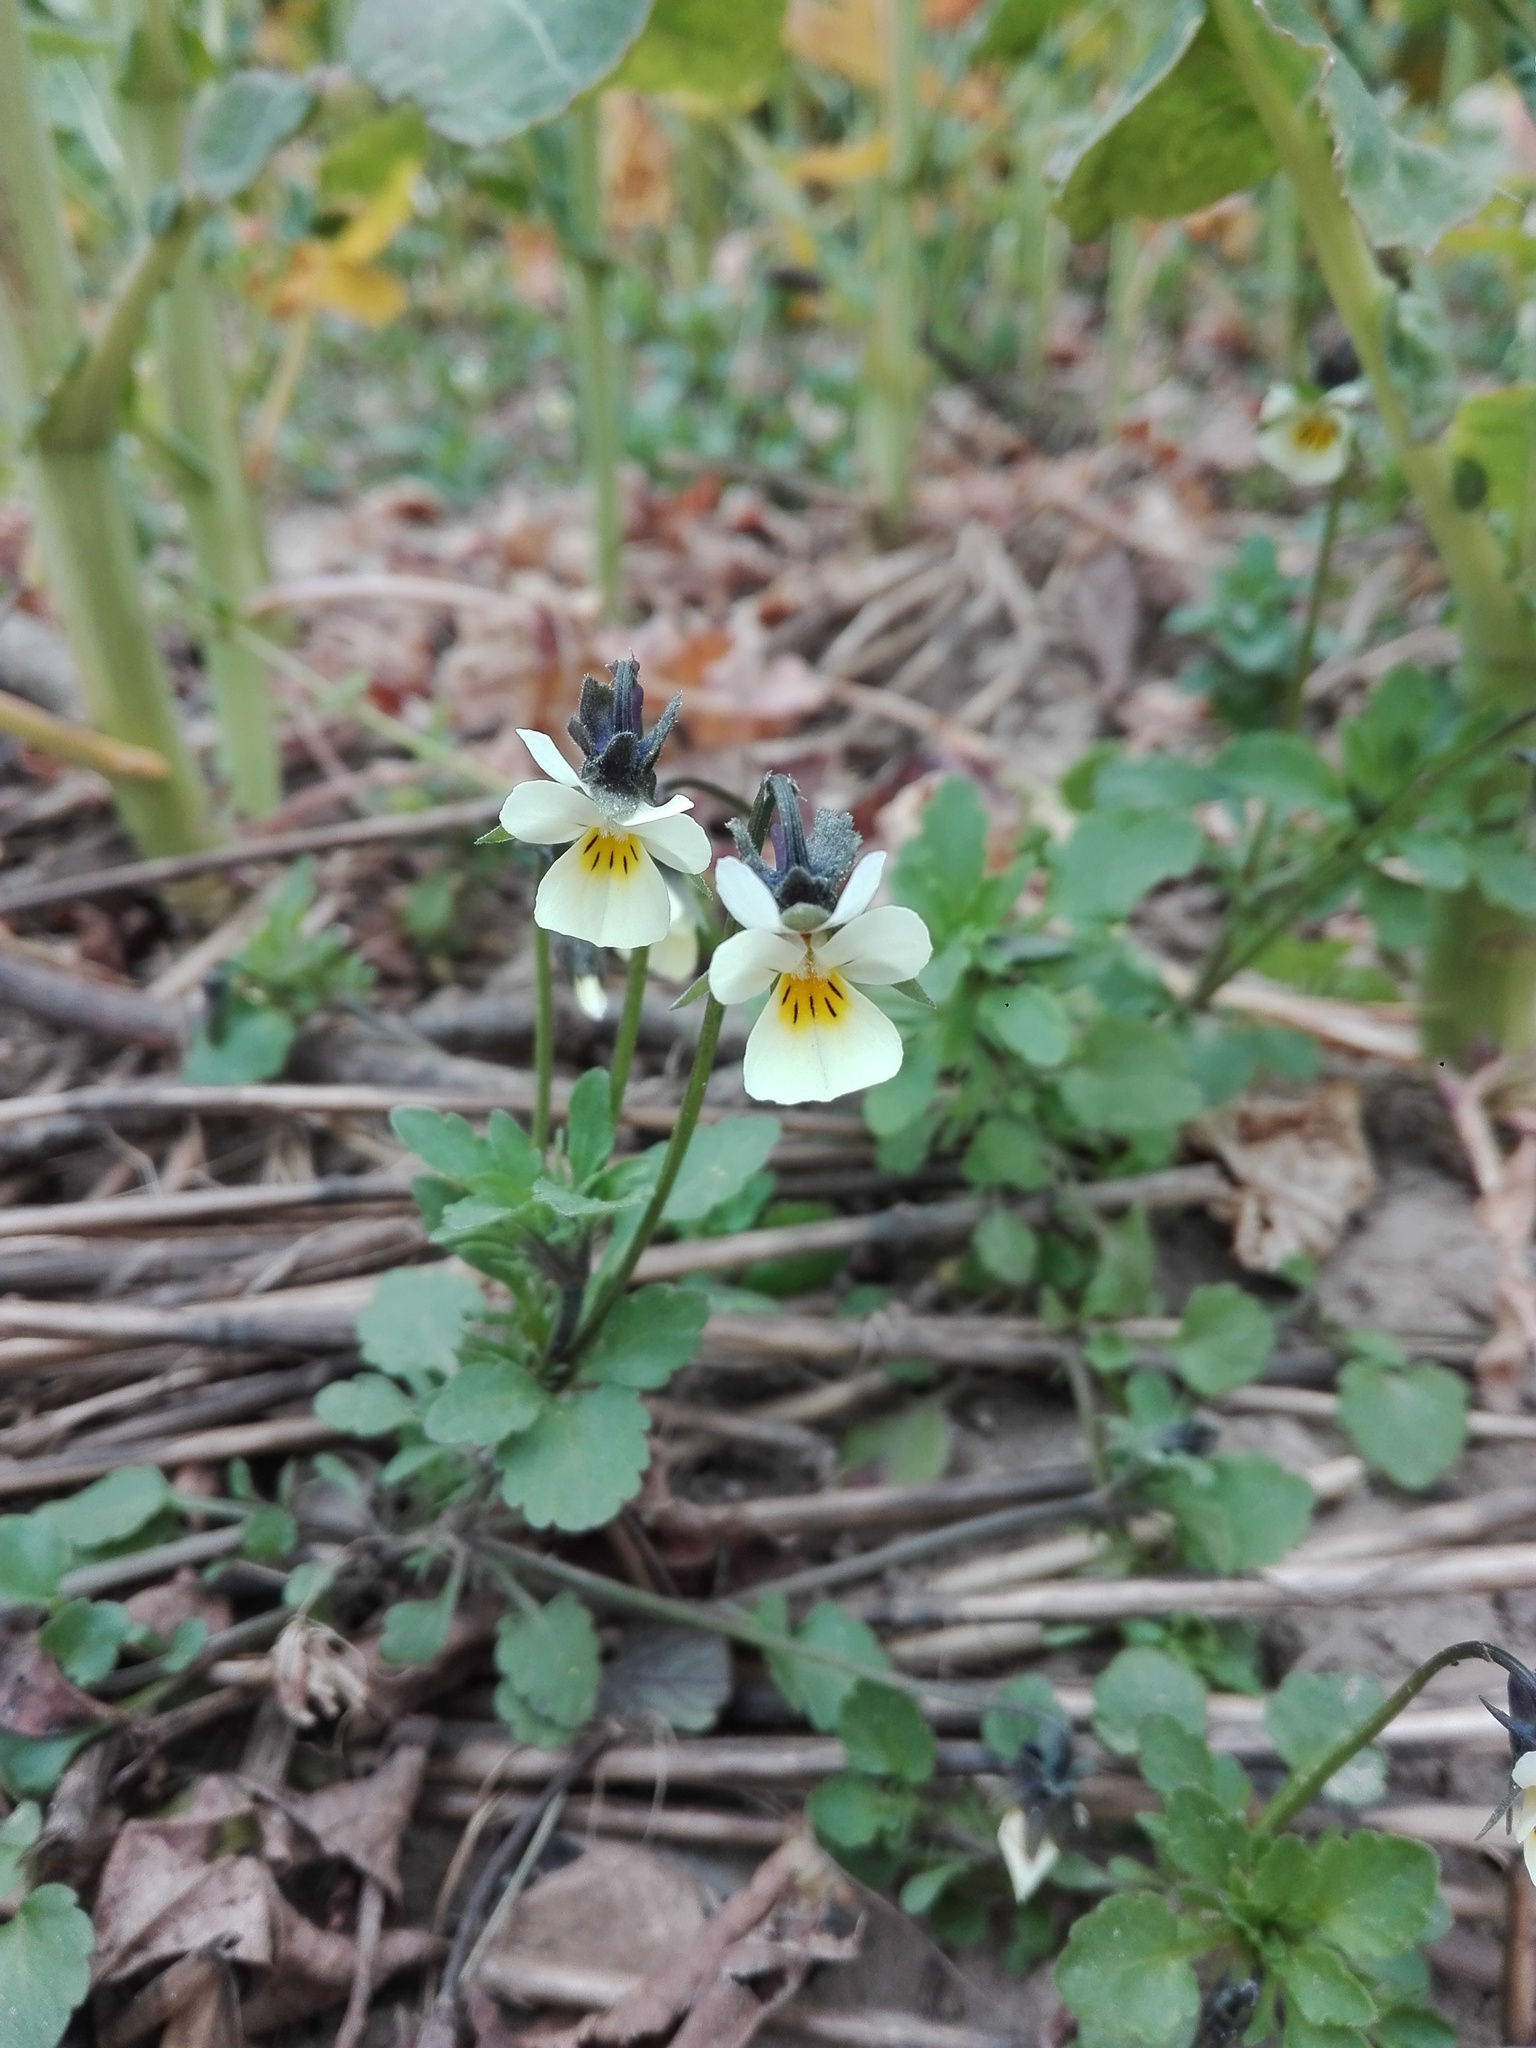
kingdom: Plantae
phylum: Tracheophyta
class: Magnoliopsida
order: Malpighiales
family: Violaceae
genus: Viola
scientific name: Viola arvensis
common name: Field pansy
